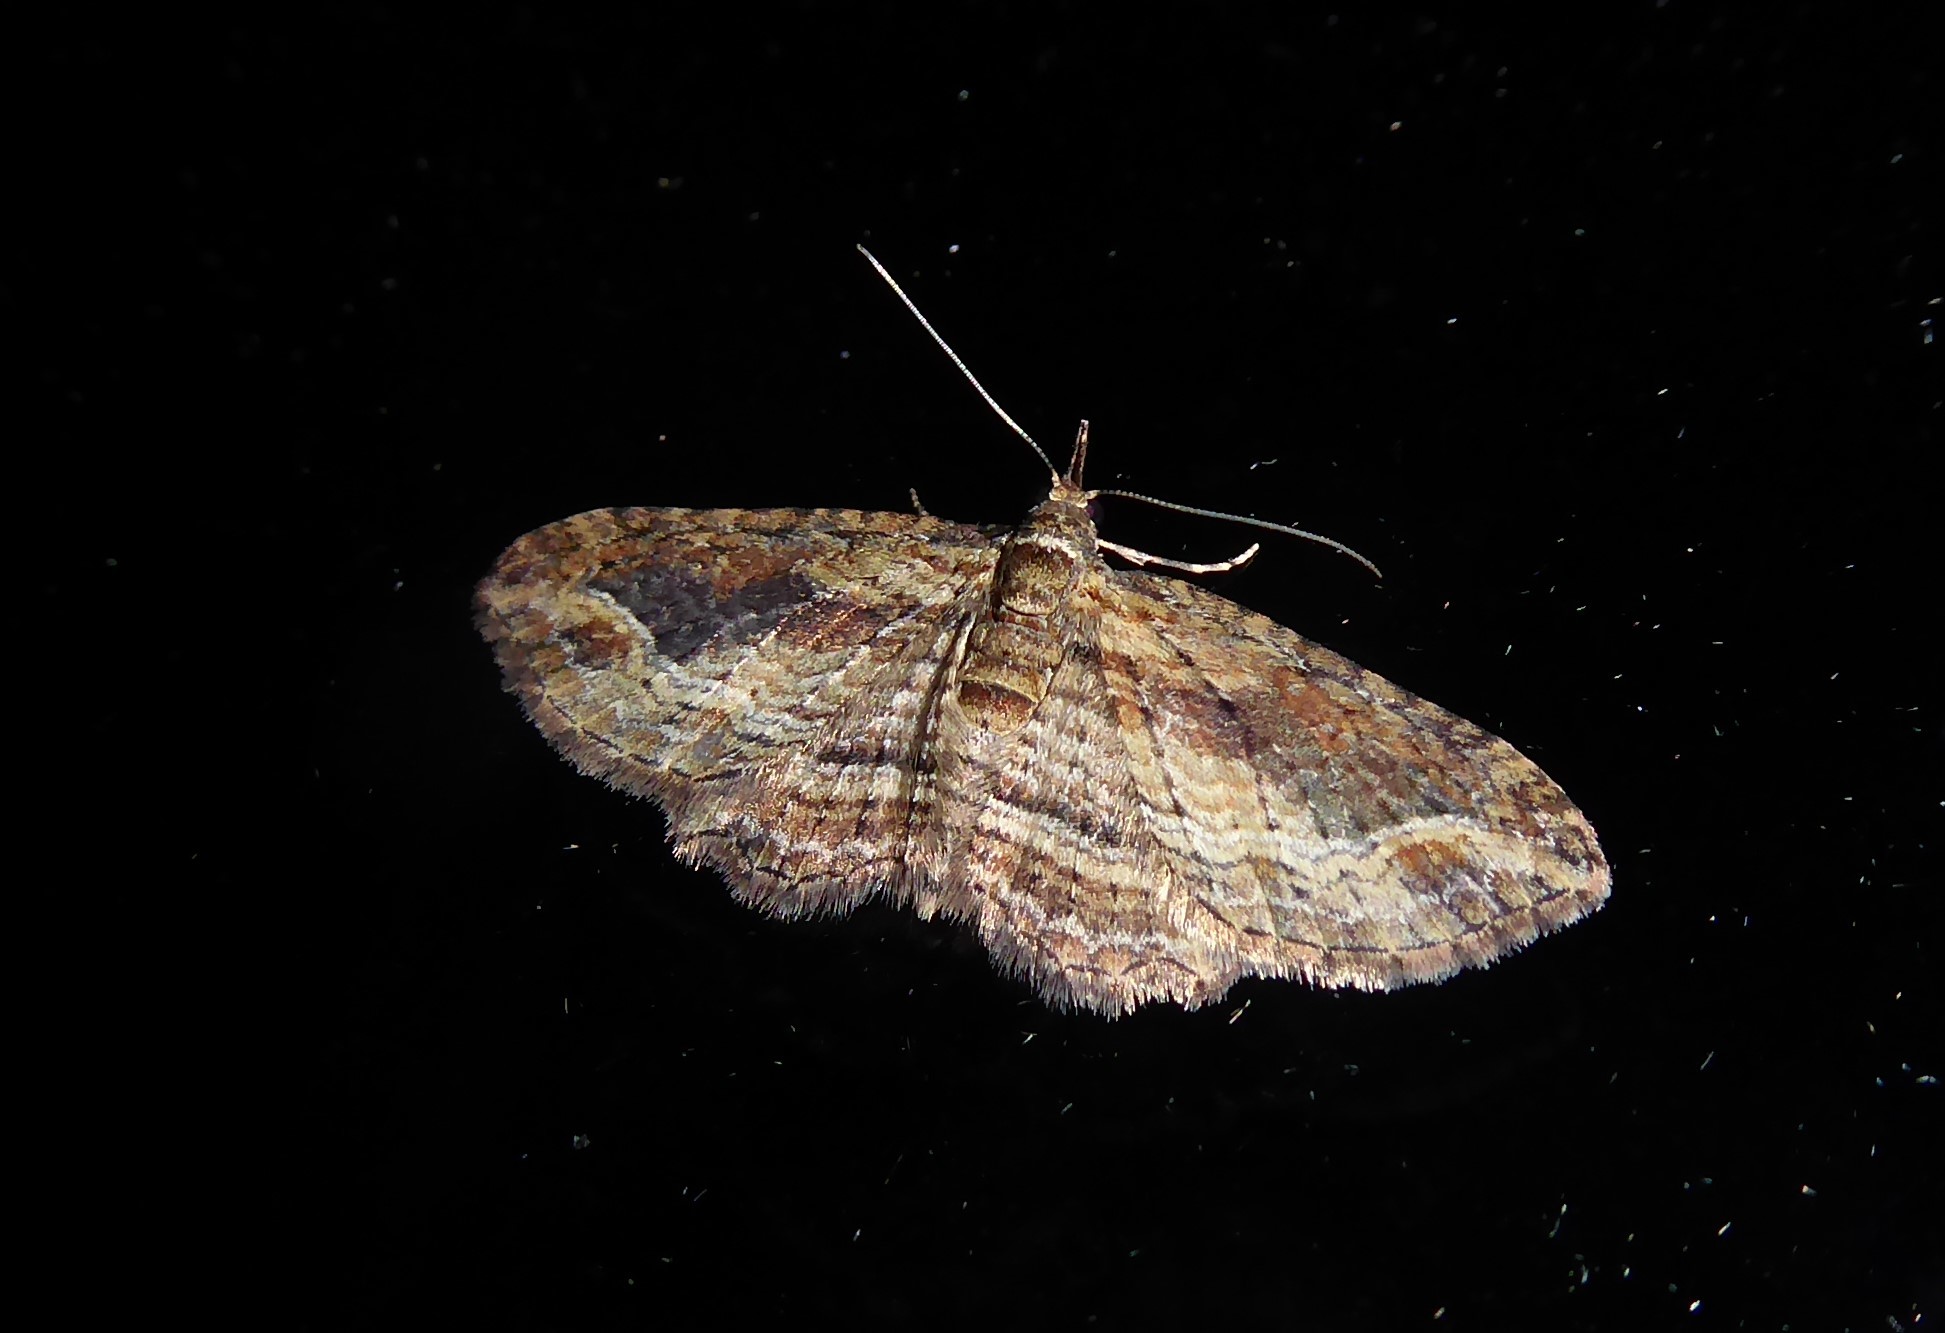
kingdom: Animalia
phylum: Arthropoda
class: Insecta
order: Lepidoptera
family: Geometridae
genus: Chloroclystis
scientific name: Chloroclystis filata
